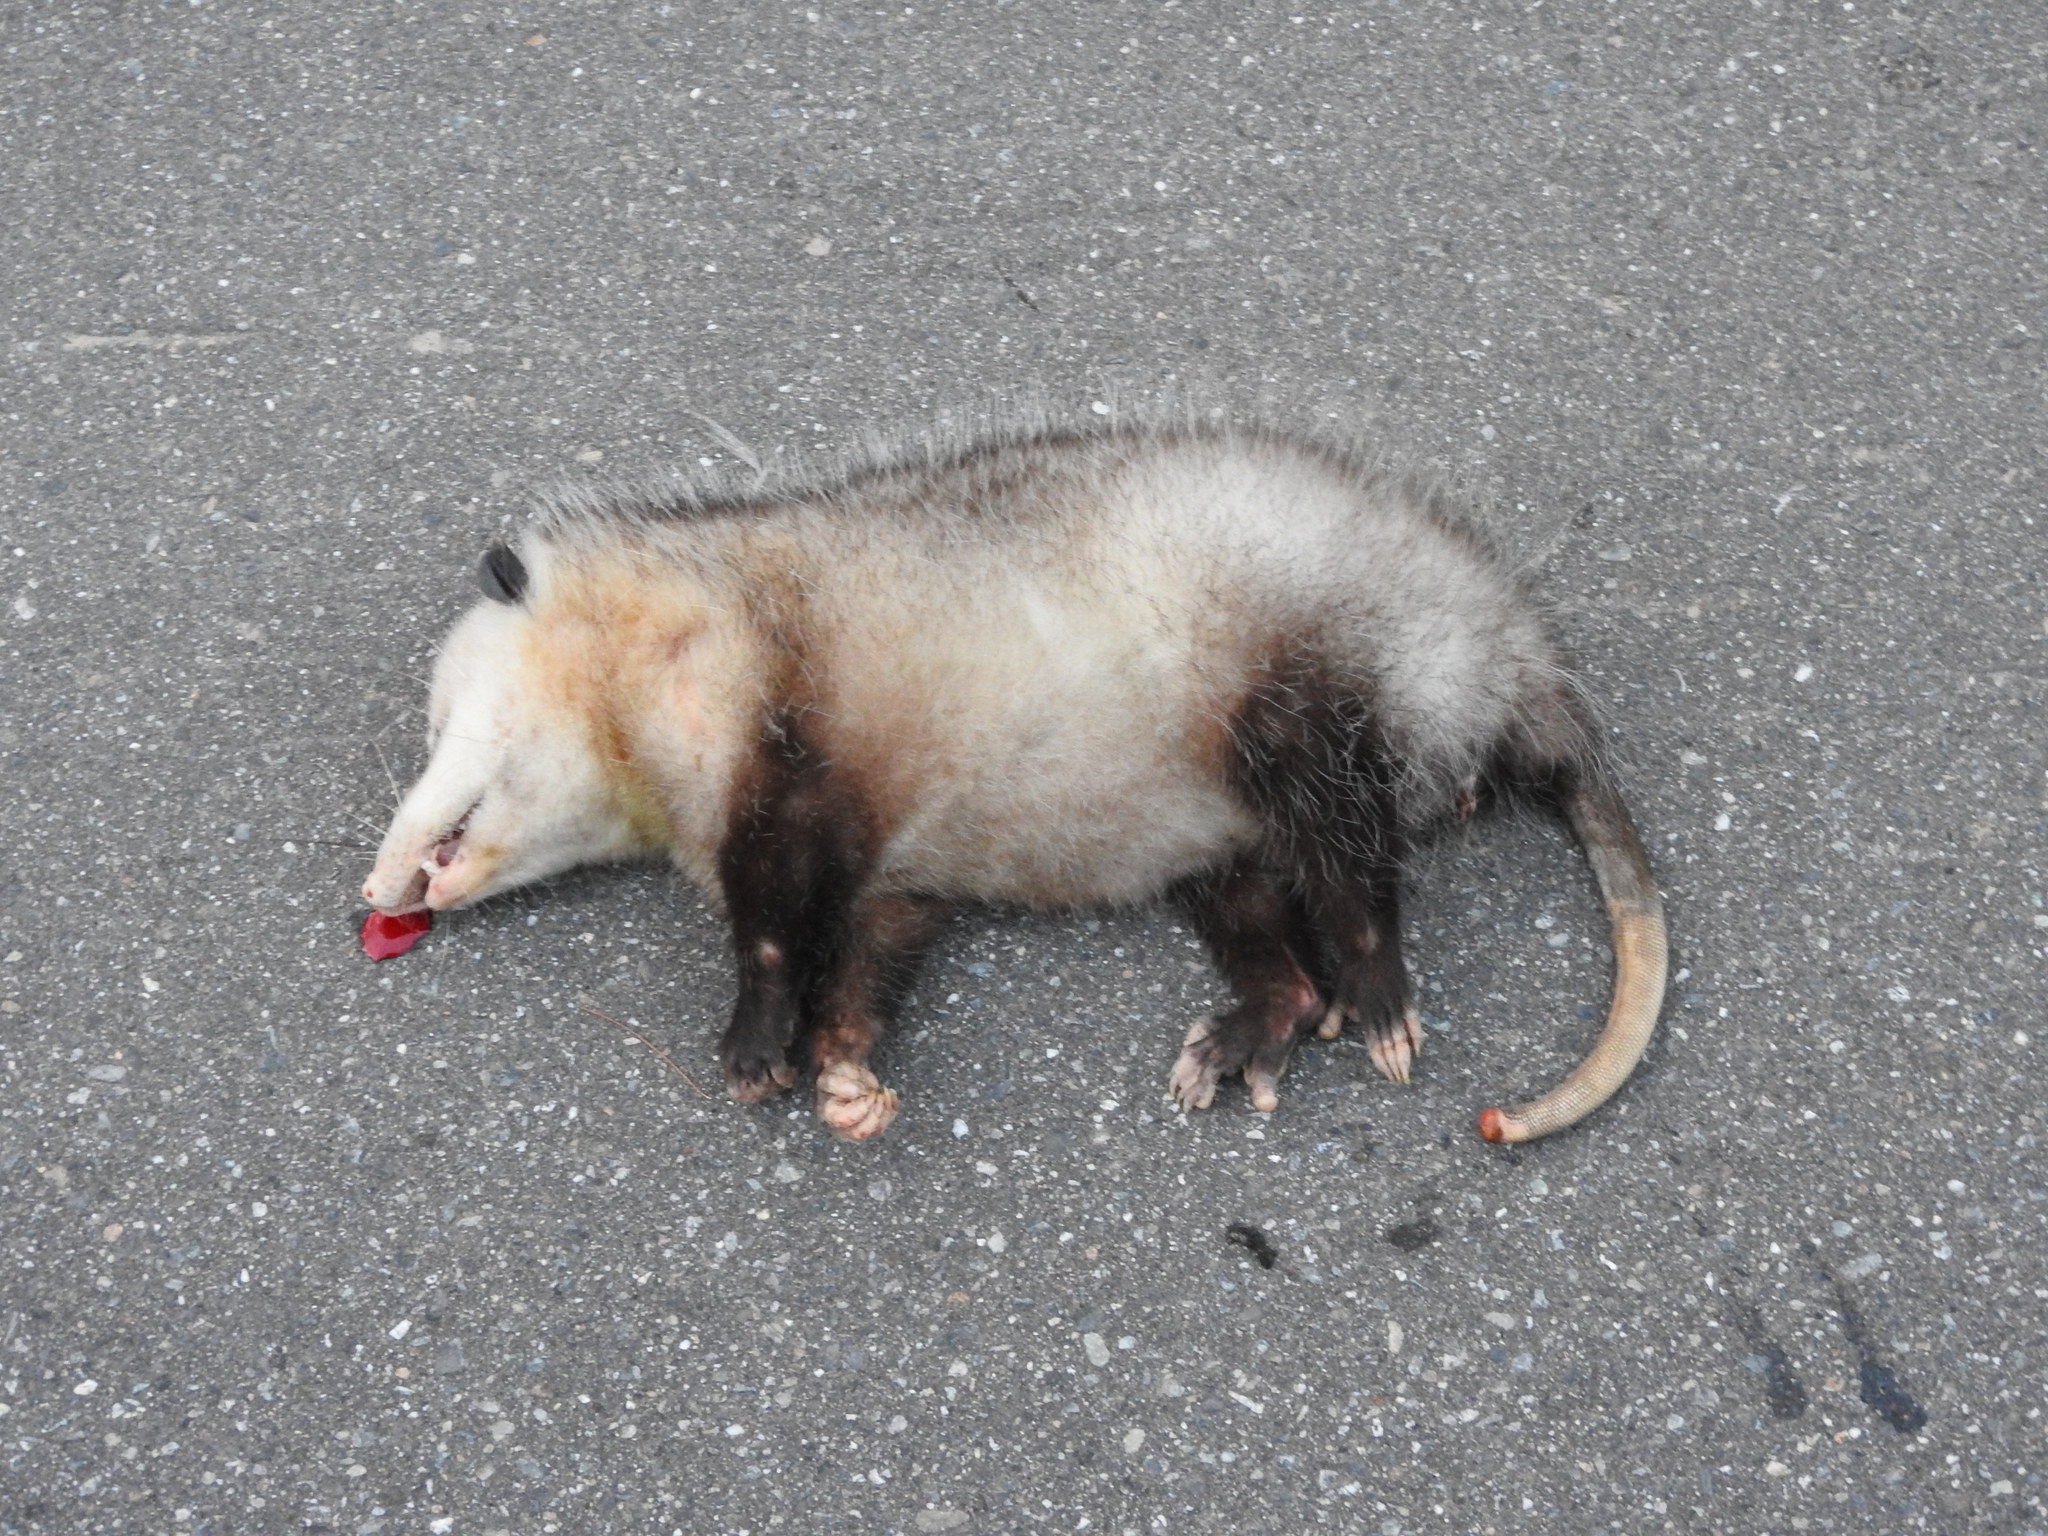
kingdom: Animalia
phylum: Chordata
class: Mammalia
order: Didelphimorphia
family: Didelphidae
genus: Didelphis
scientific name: Didelphis virginiana
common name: Virginia opossum
